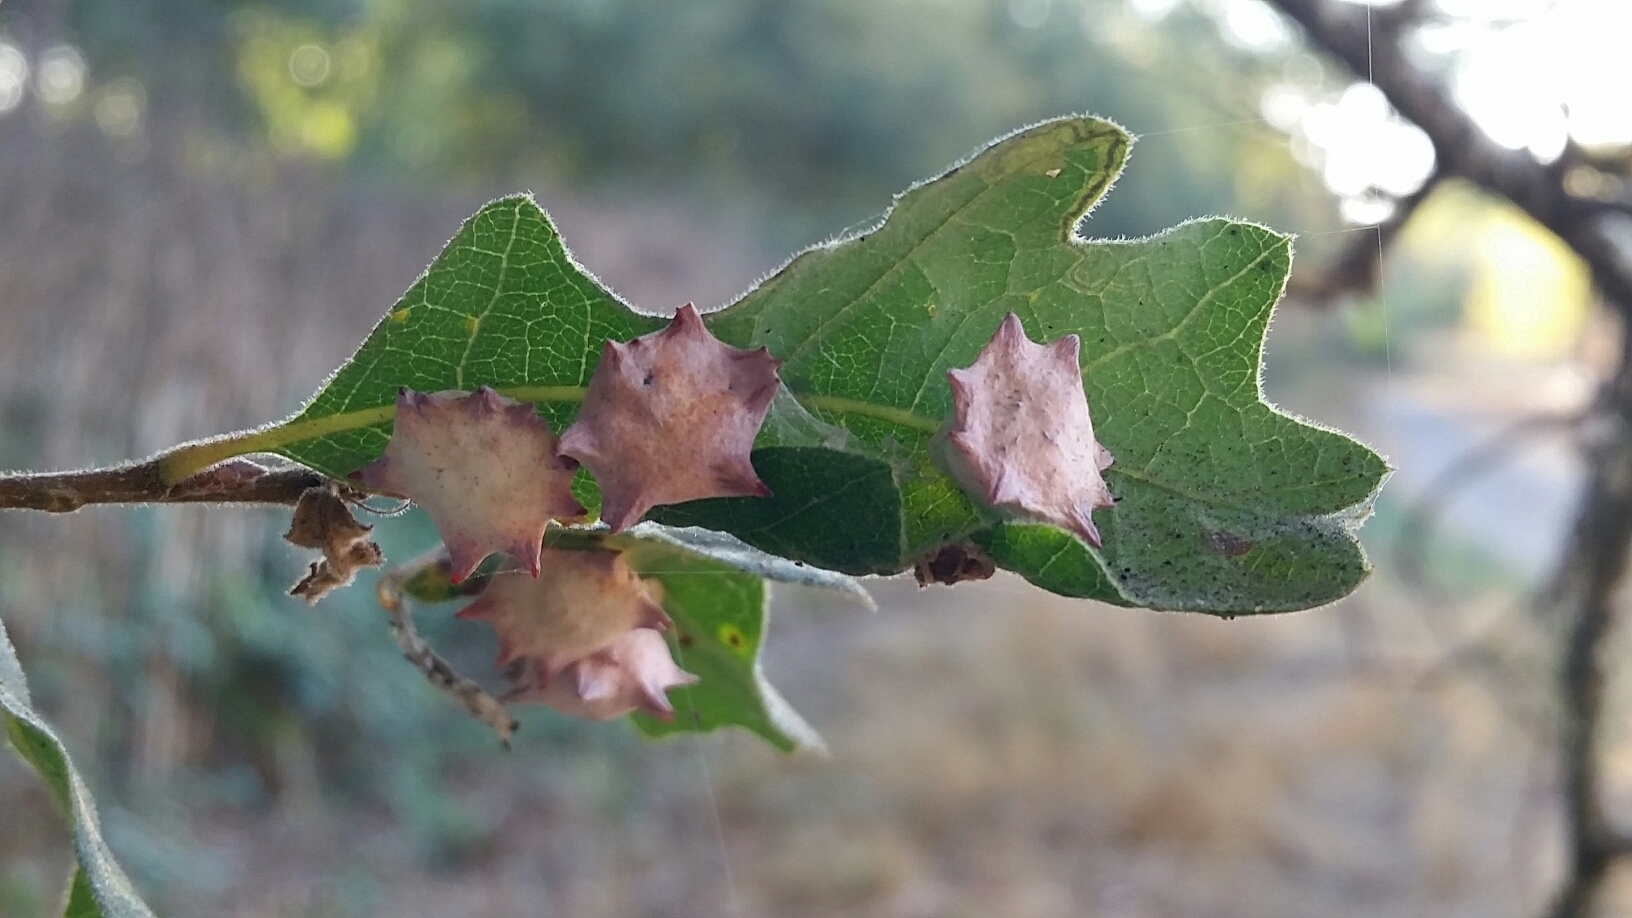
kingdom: Animalia
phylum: Arthropoda
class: Insecta
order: Hymenoptera
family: Cynipidae
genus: Cynips
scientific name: Cynips douglasi
